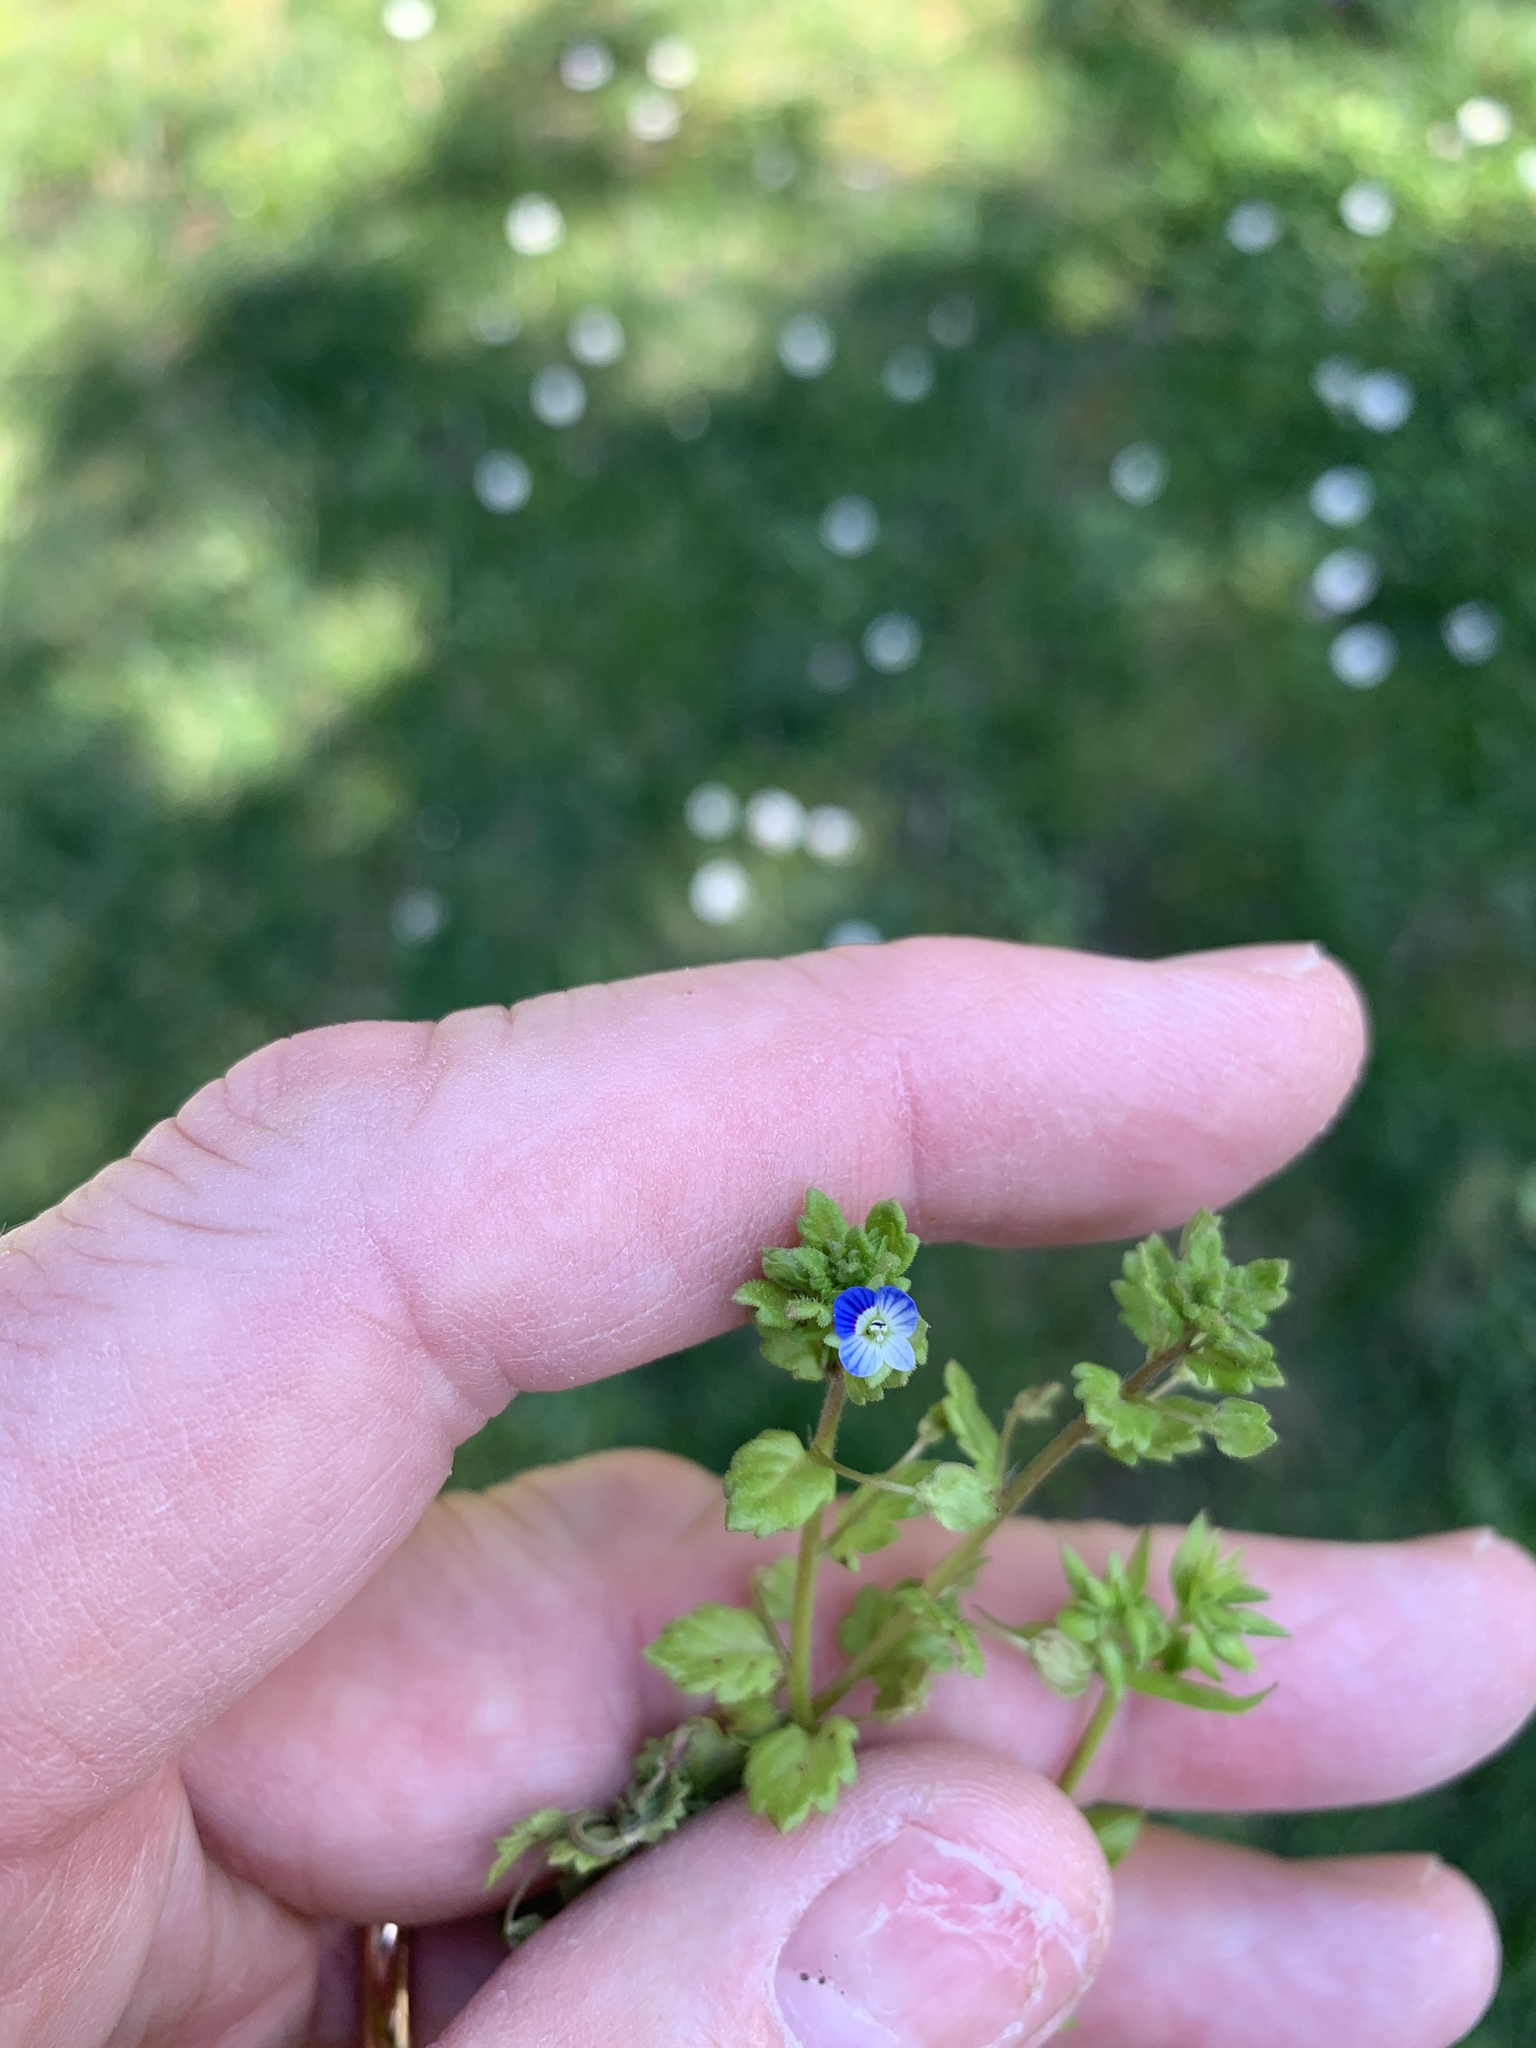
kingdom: Plantae
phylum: Tracheophyta
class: Magnoliopsida
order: Lamiales
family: Plantaginaceae
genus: Veronica
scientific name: Veronica polita
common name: Grey field-speedwell
